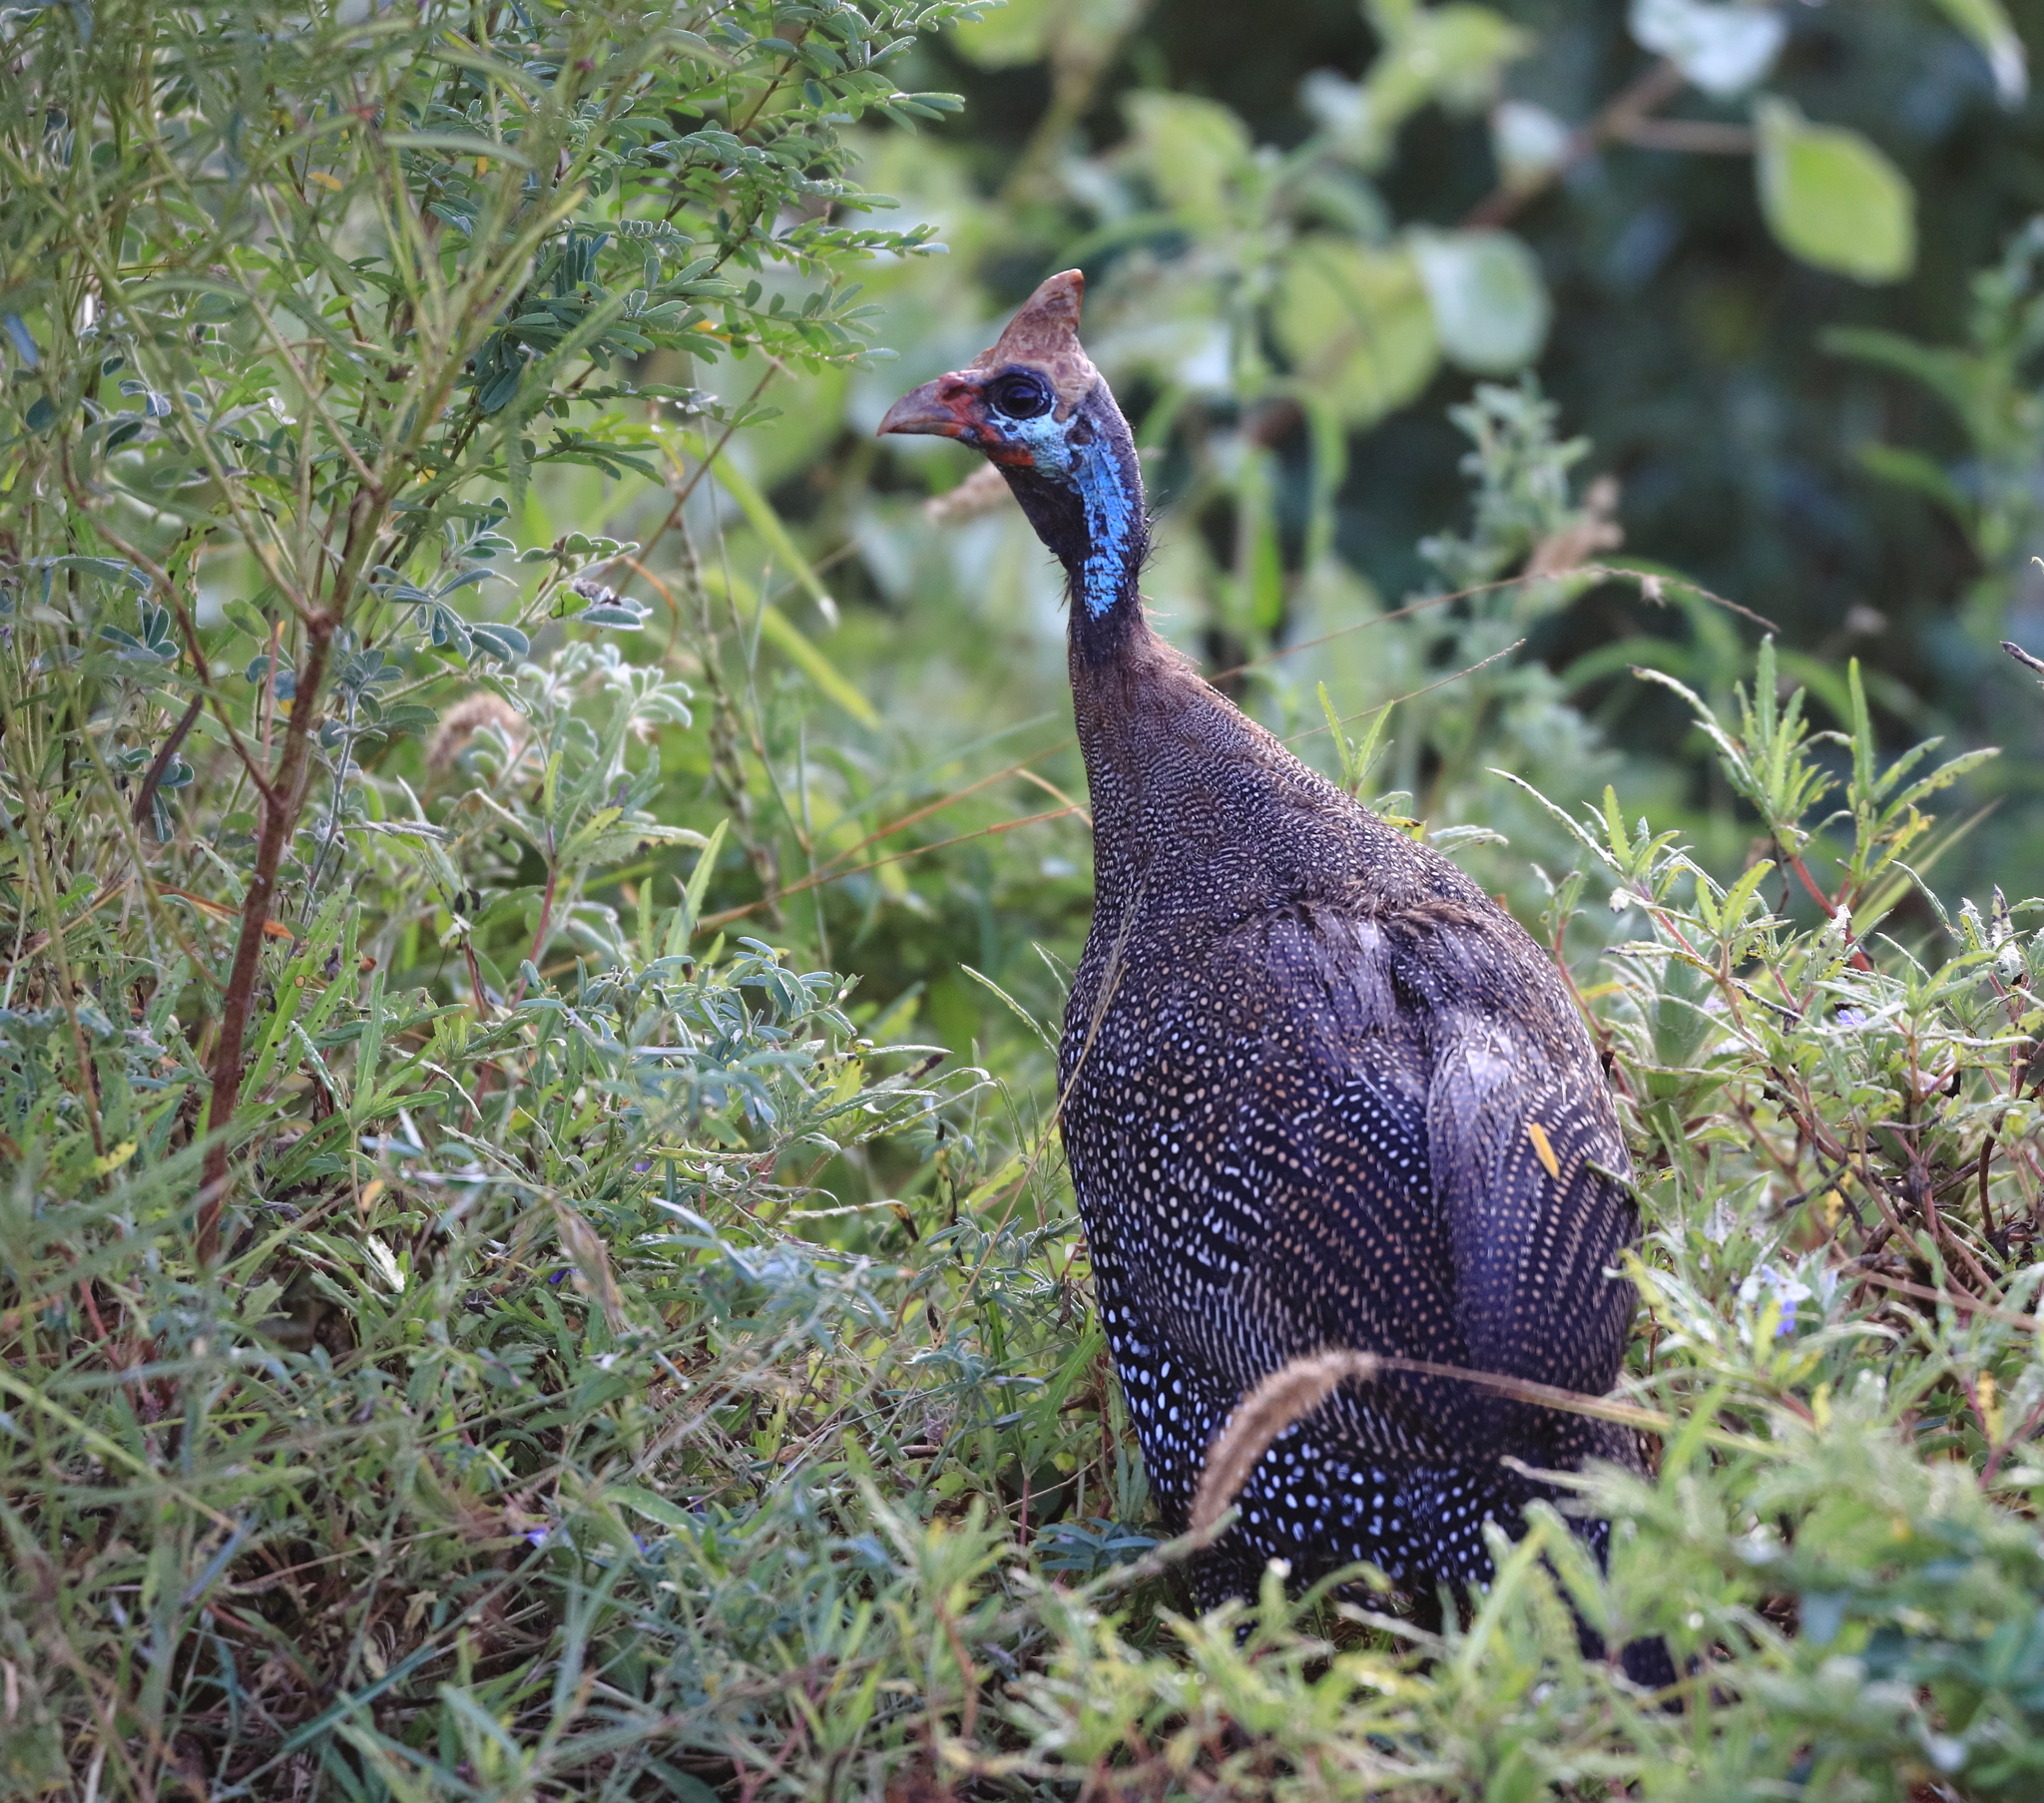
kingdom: Animalia
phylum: Chordata
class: Aves
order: Galliformes
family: Numididae
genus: Numida
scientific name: Numida meleagris
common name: Helmeted guineafowl
